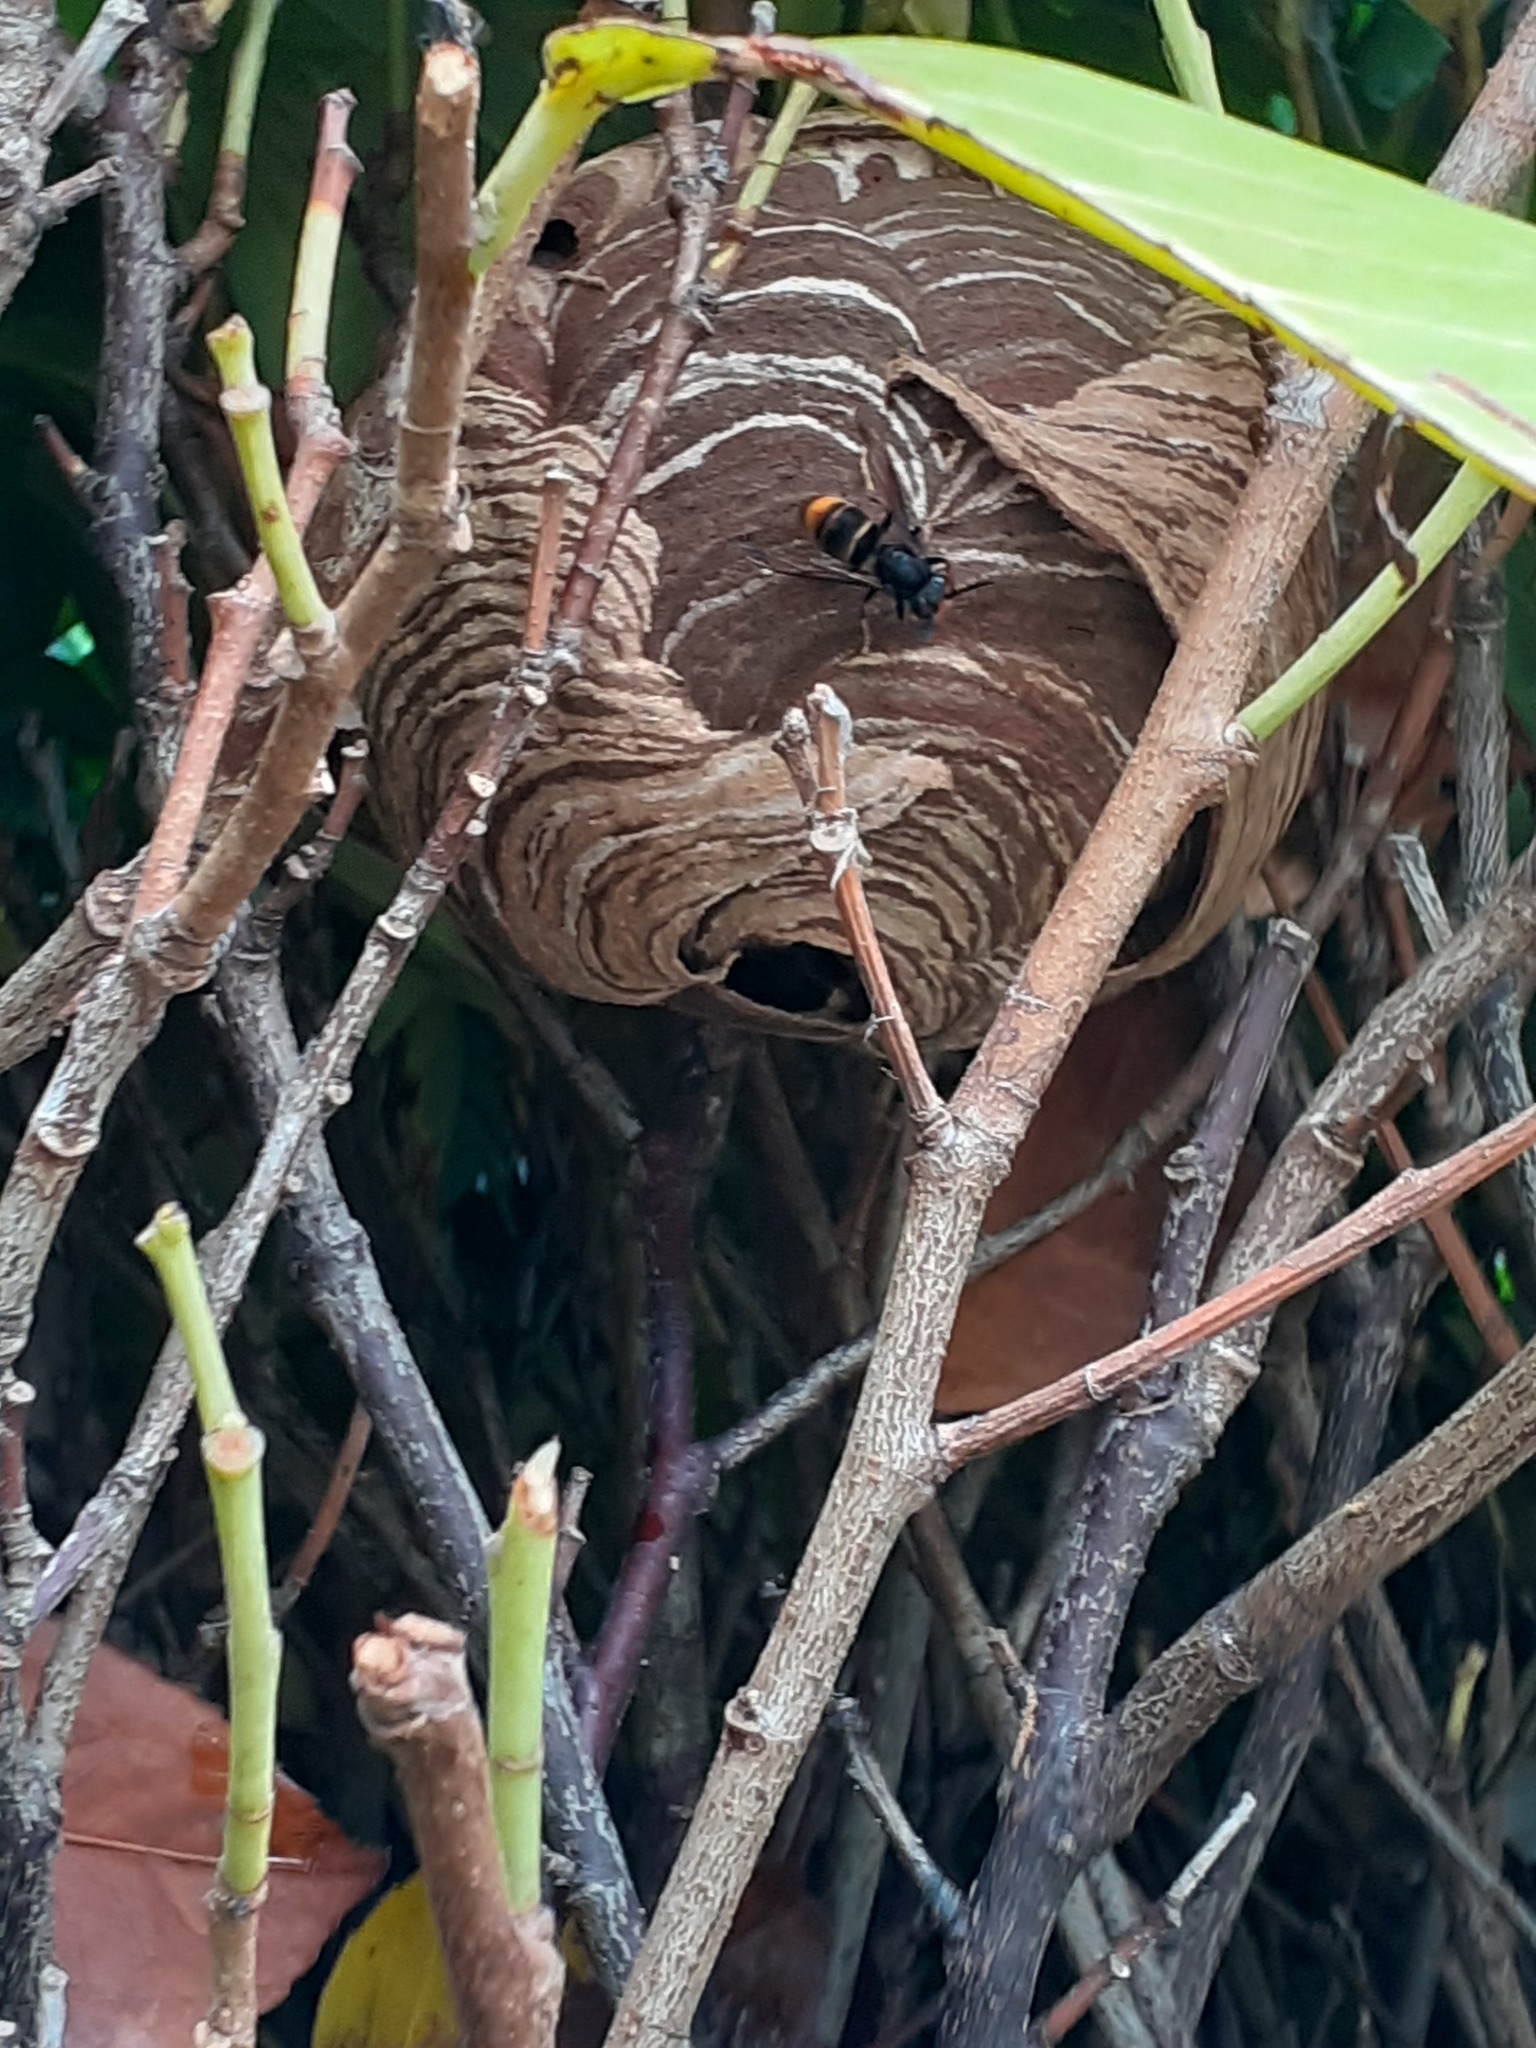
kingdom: Animalia
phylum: Arthropoda
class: Insecta
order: Hymenoptera
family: Vespidae
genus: Vespa
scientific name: Vespa velutina
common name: Asian hornet
